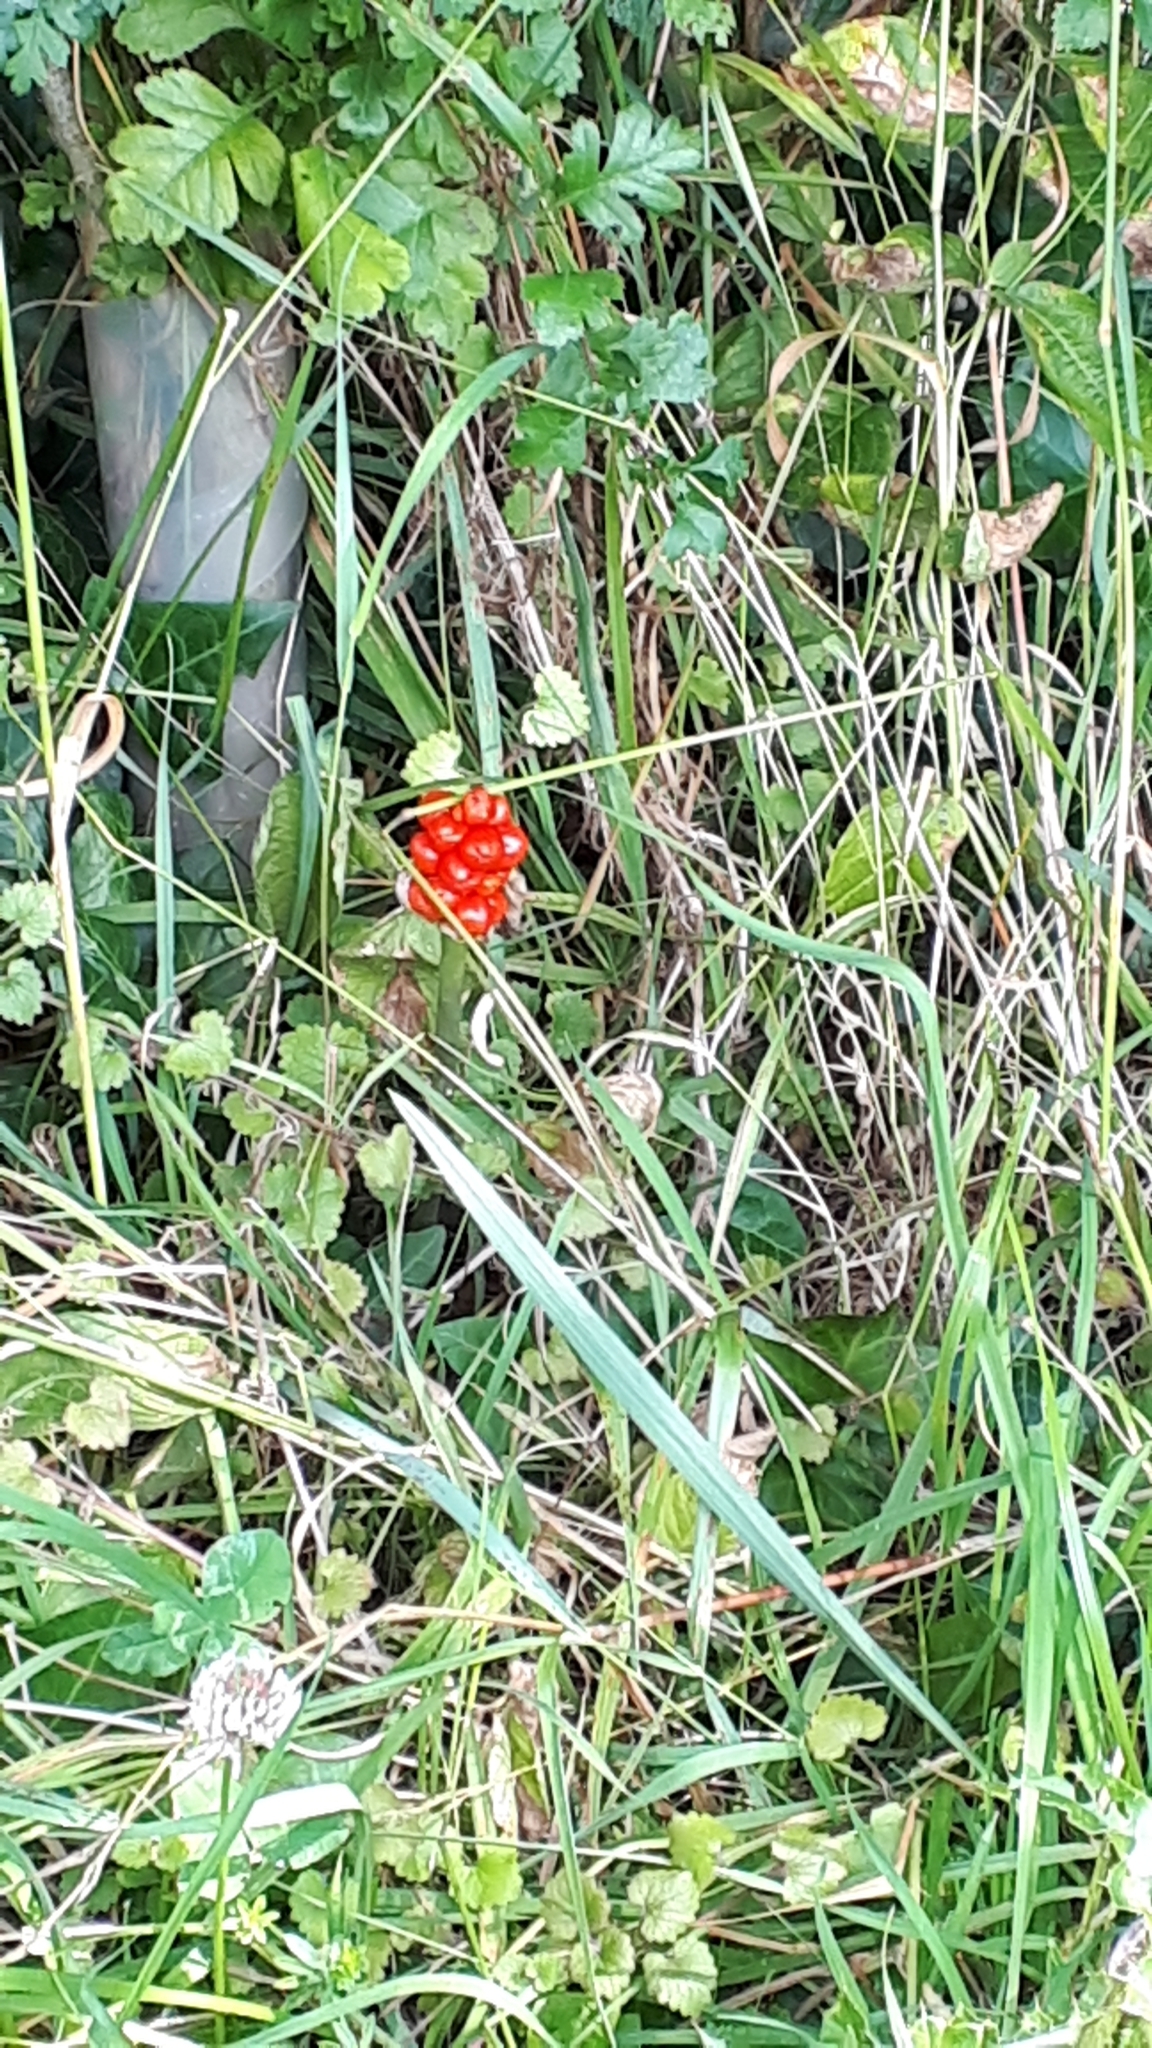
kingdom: Plantae
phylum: Tracheophyta
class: Liliopsida
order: Alismatales
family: Araceae
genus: Arum
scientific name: Arum maculatum
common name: Lords-and-ladies
